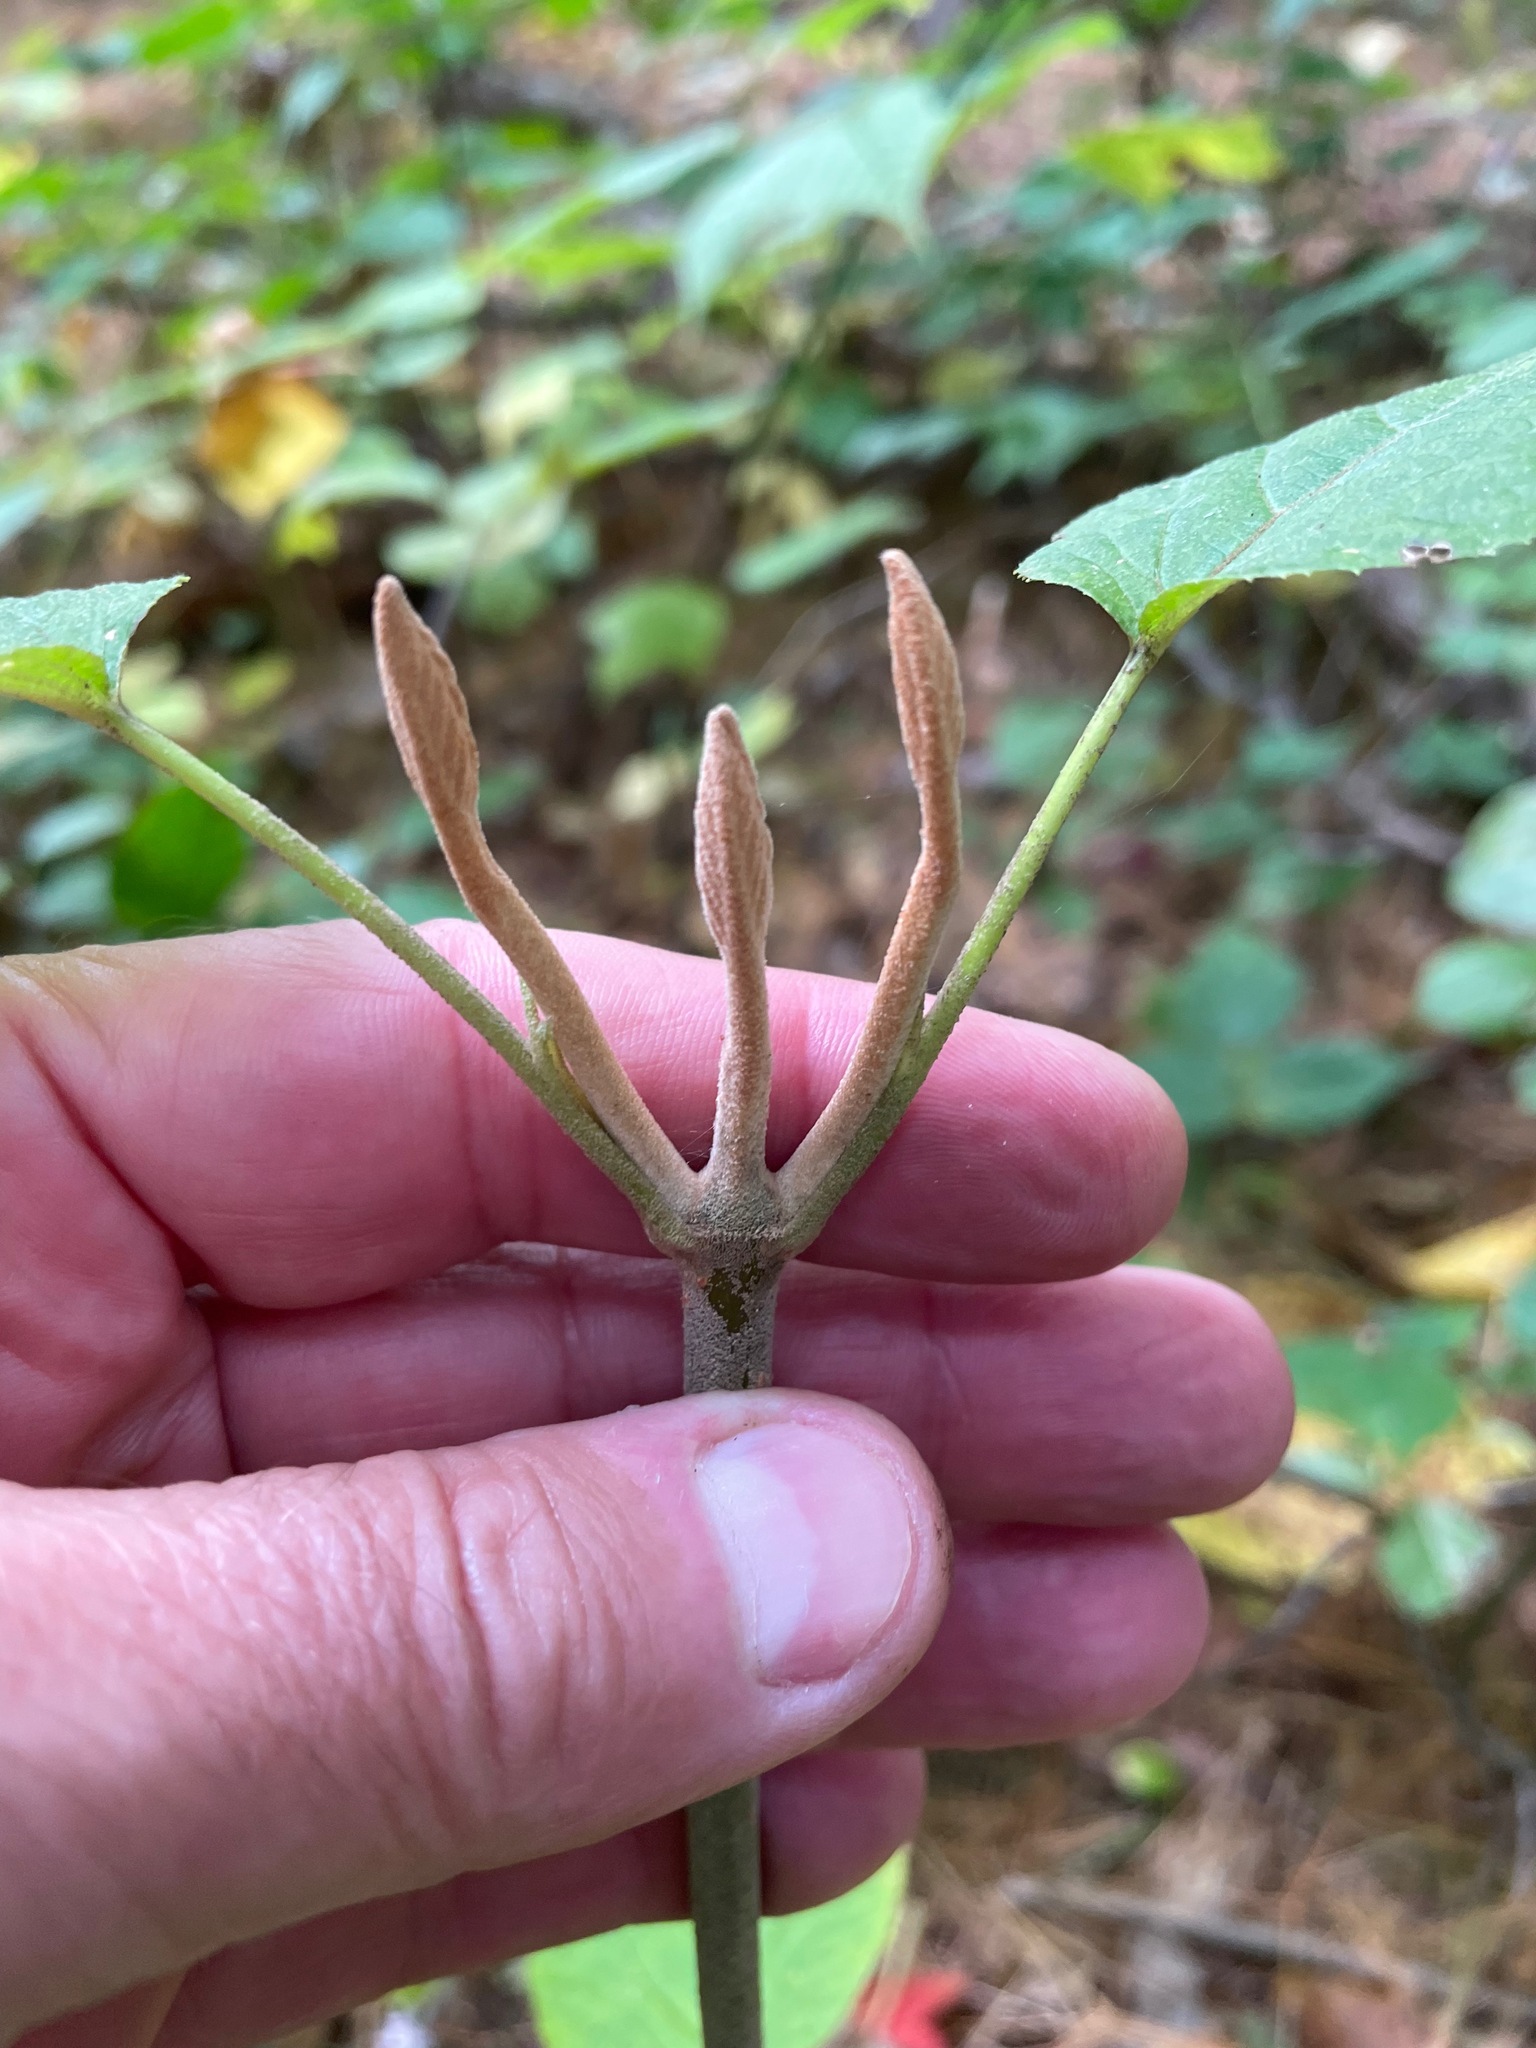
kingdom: Plantae
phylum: Tracheophyta
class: Magnoliopsida
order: Dipsacales
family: Viburnaceae
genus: Viburnum
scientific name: Viburnum lantanoides
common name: Hobblebush
